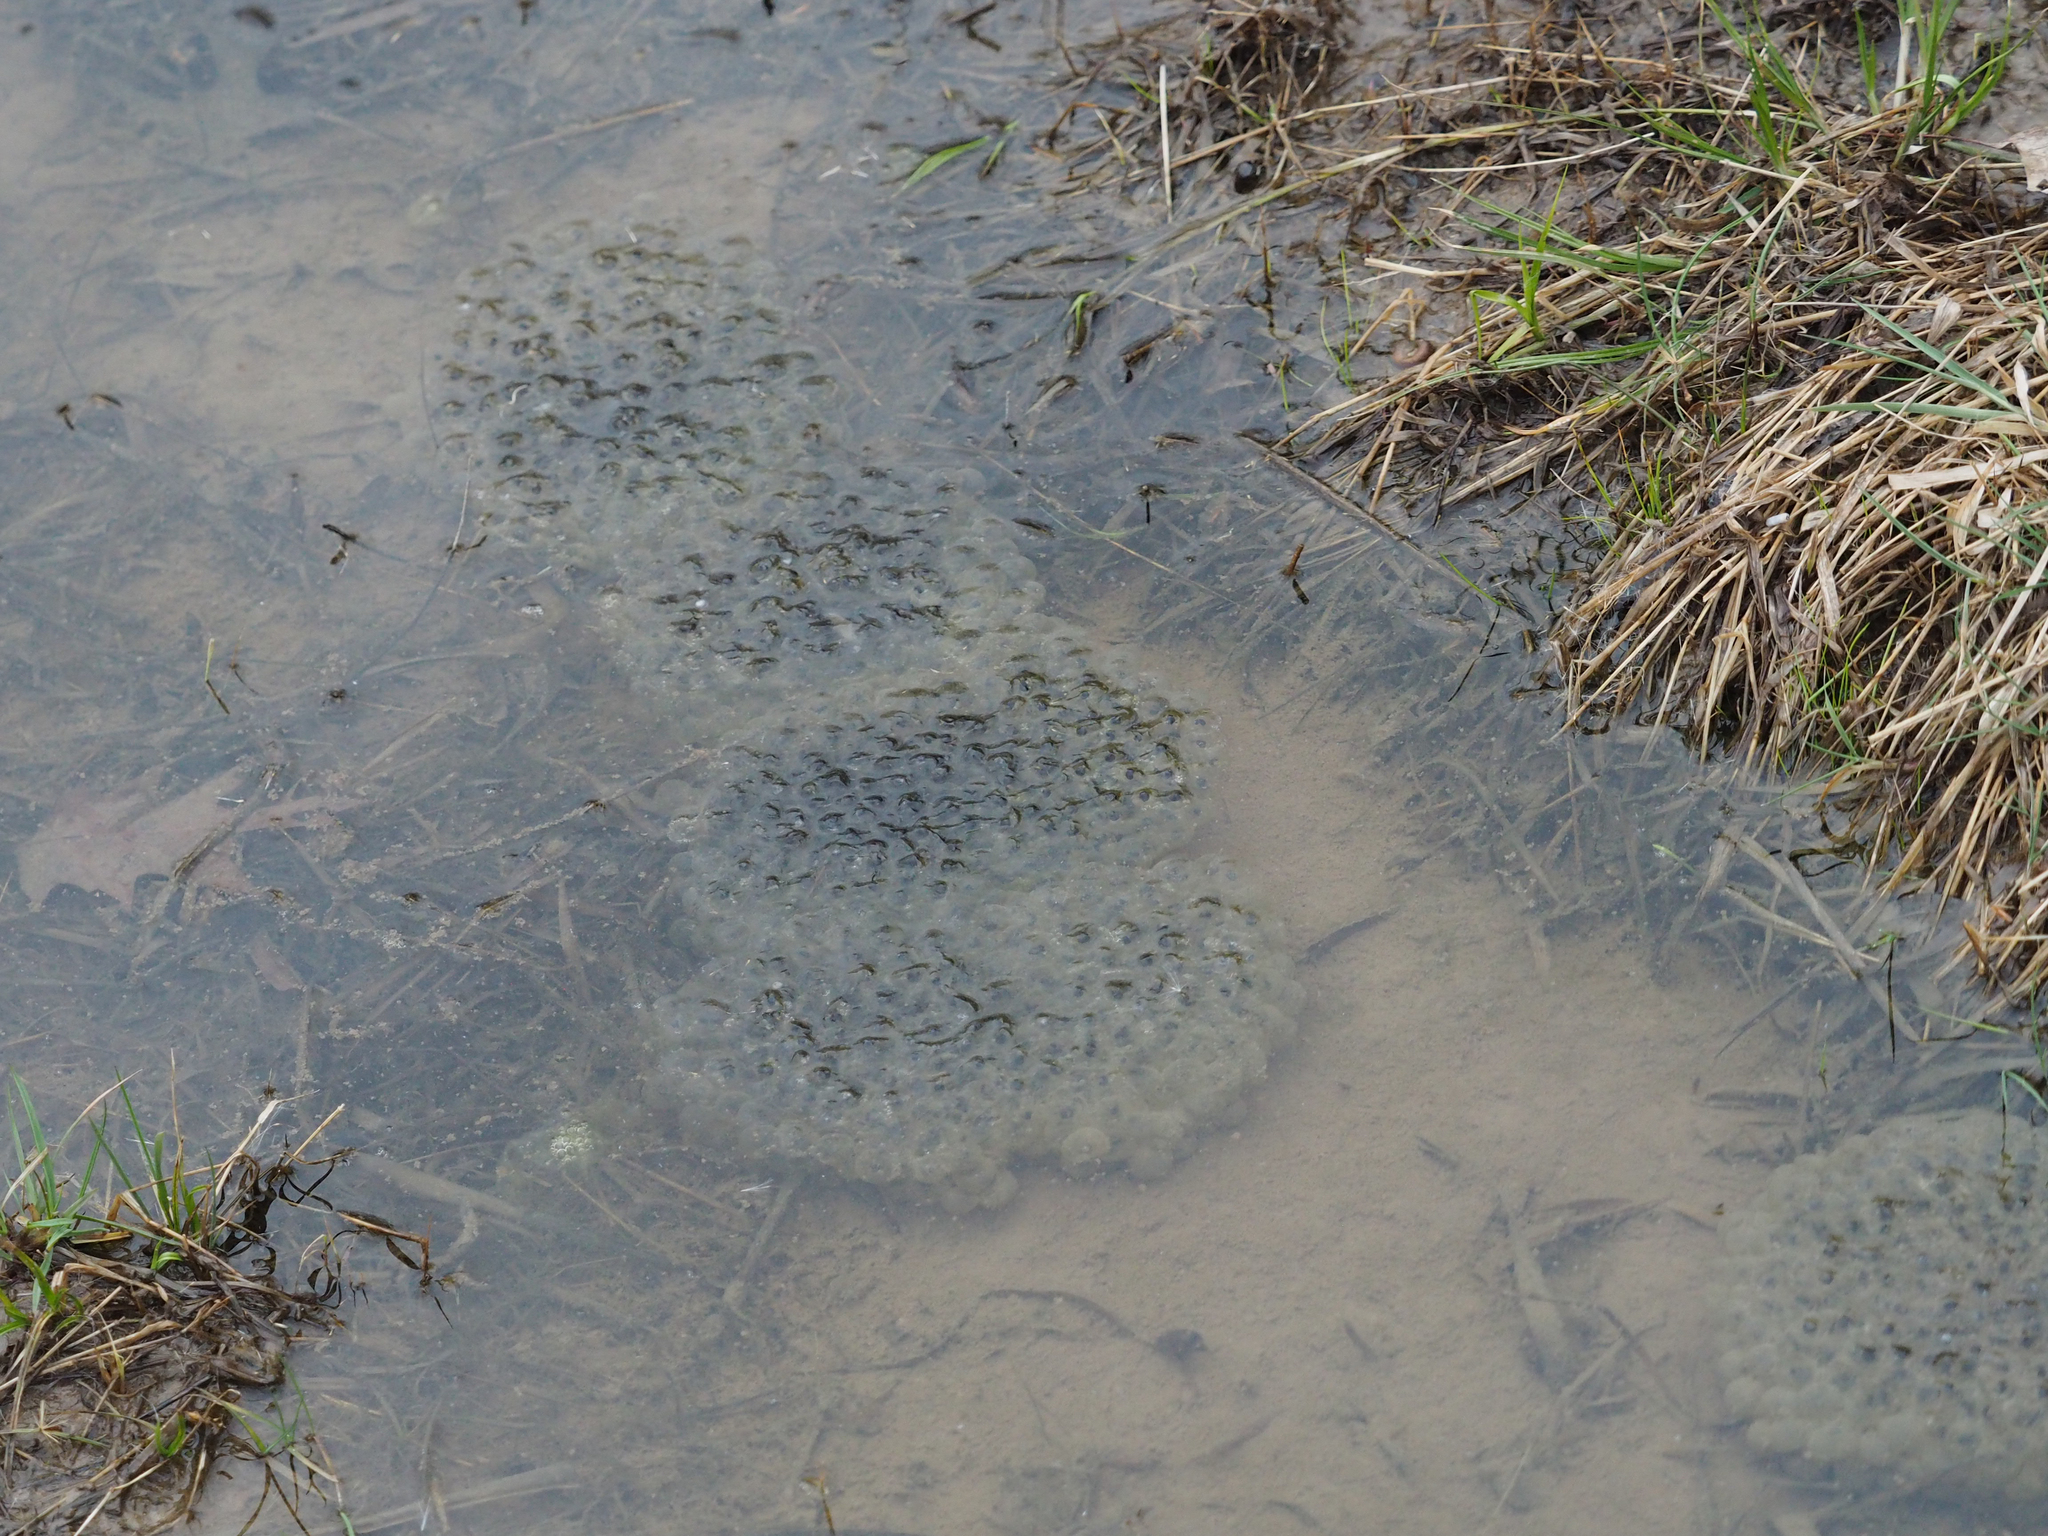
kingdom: Animalia
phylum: Chordata
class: Amphibia
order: Anura
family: Ranidae
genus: Lithobates
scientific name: Lithobates sylvaticus
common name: Wood frog
